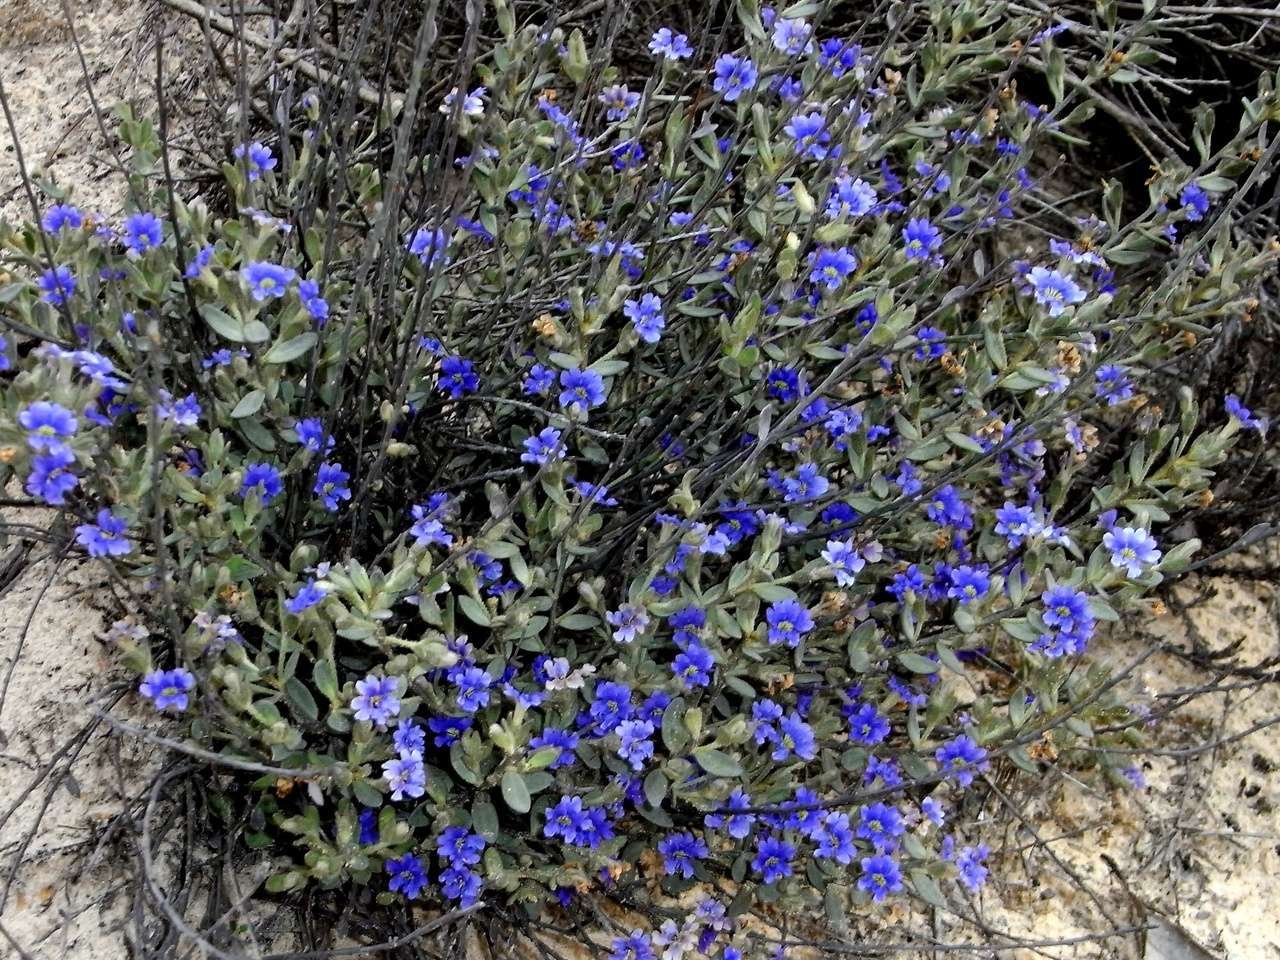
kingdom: Plantae
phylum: Tracheophyta
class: Magnoliopsida
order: Asterales
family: Goodeniaceae
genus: Dampiera
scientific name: Dampiera marifolia
